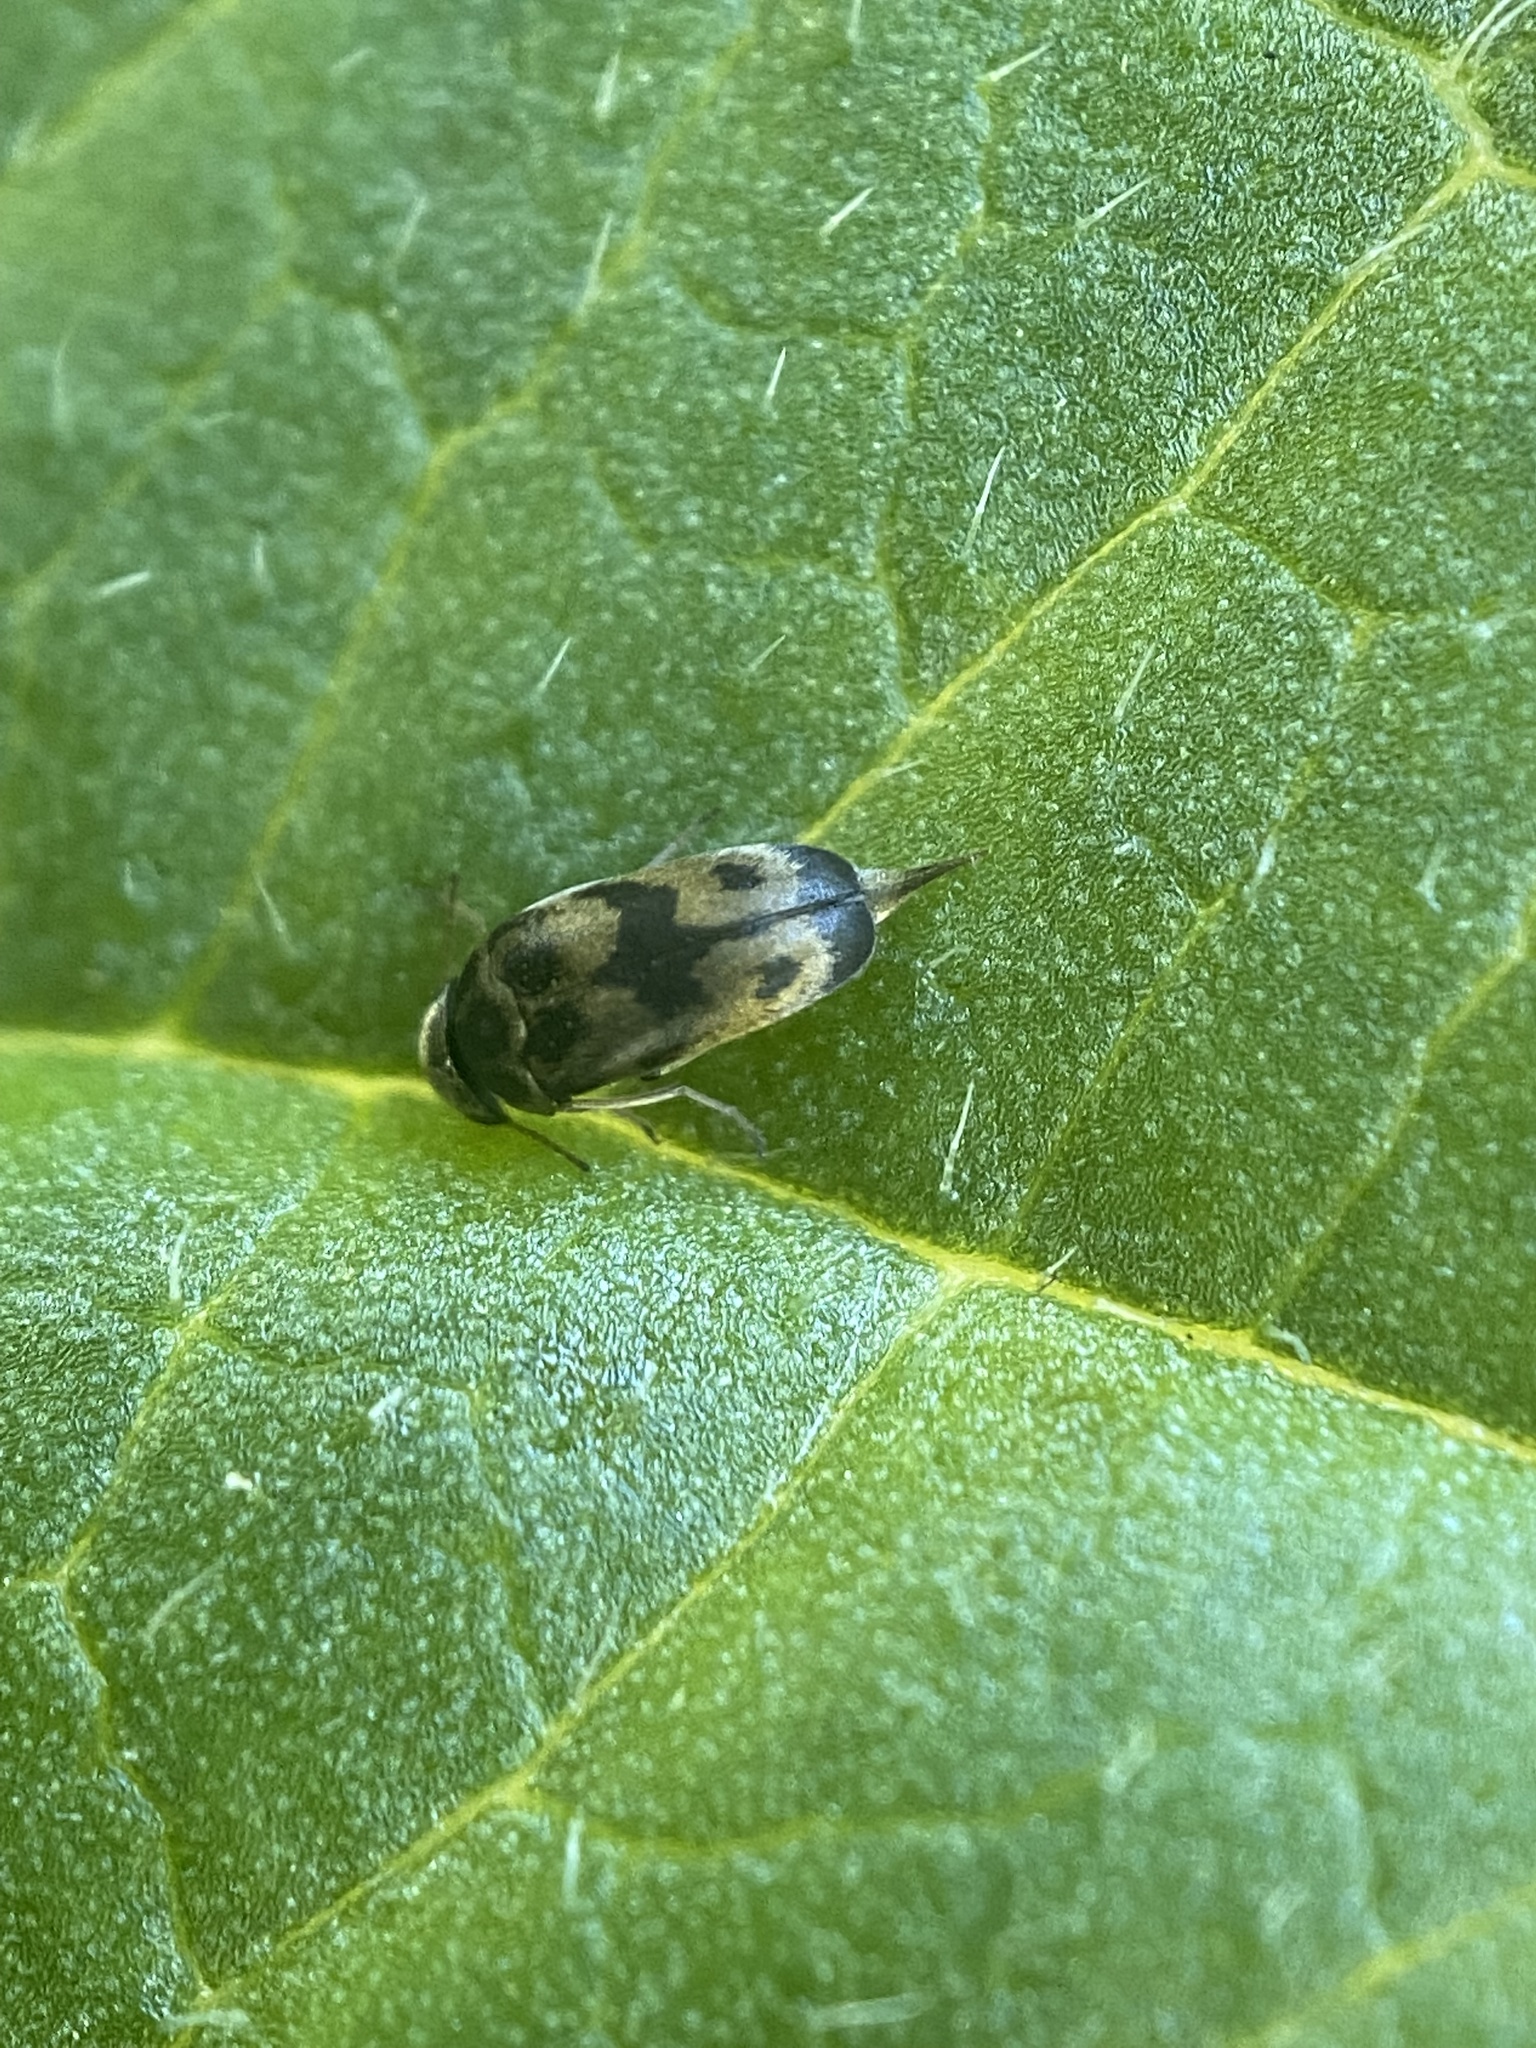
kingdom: Animalia
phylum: Arthropoda
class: Insecta
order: Coleoptera
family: Mordellidae
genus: Paramordellaria
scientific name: Paramordellaria triloba
